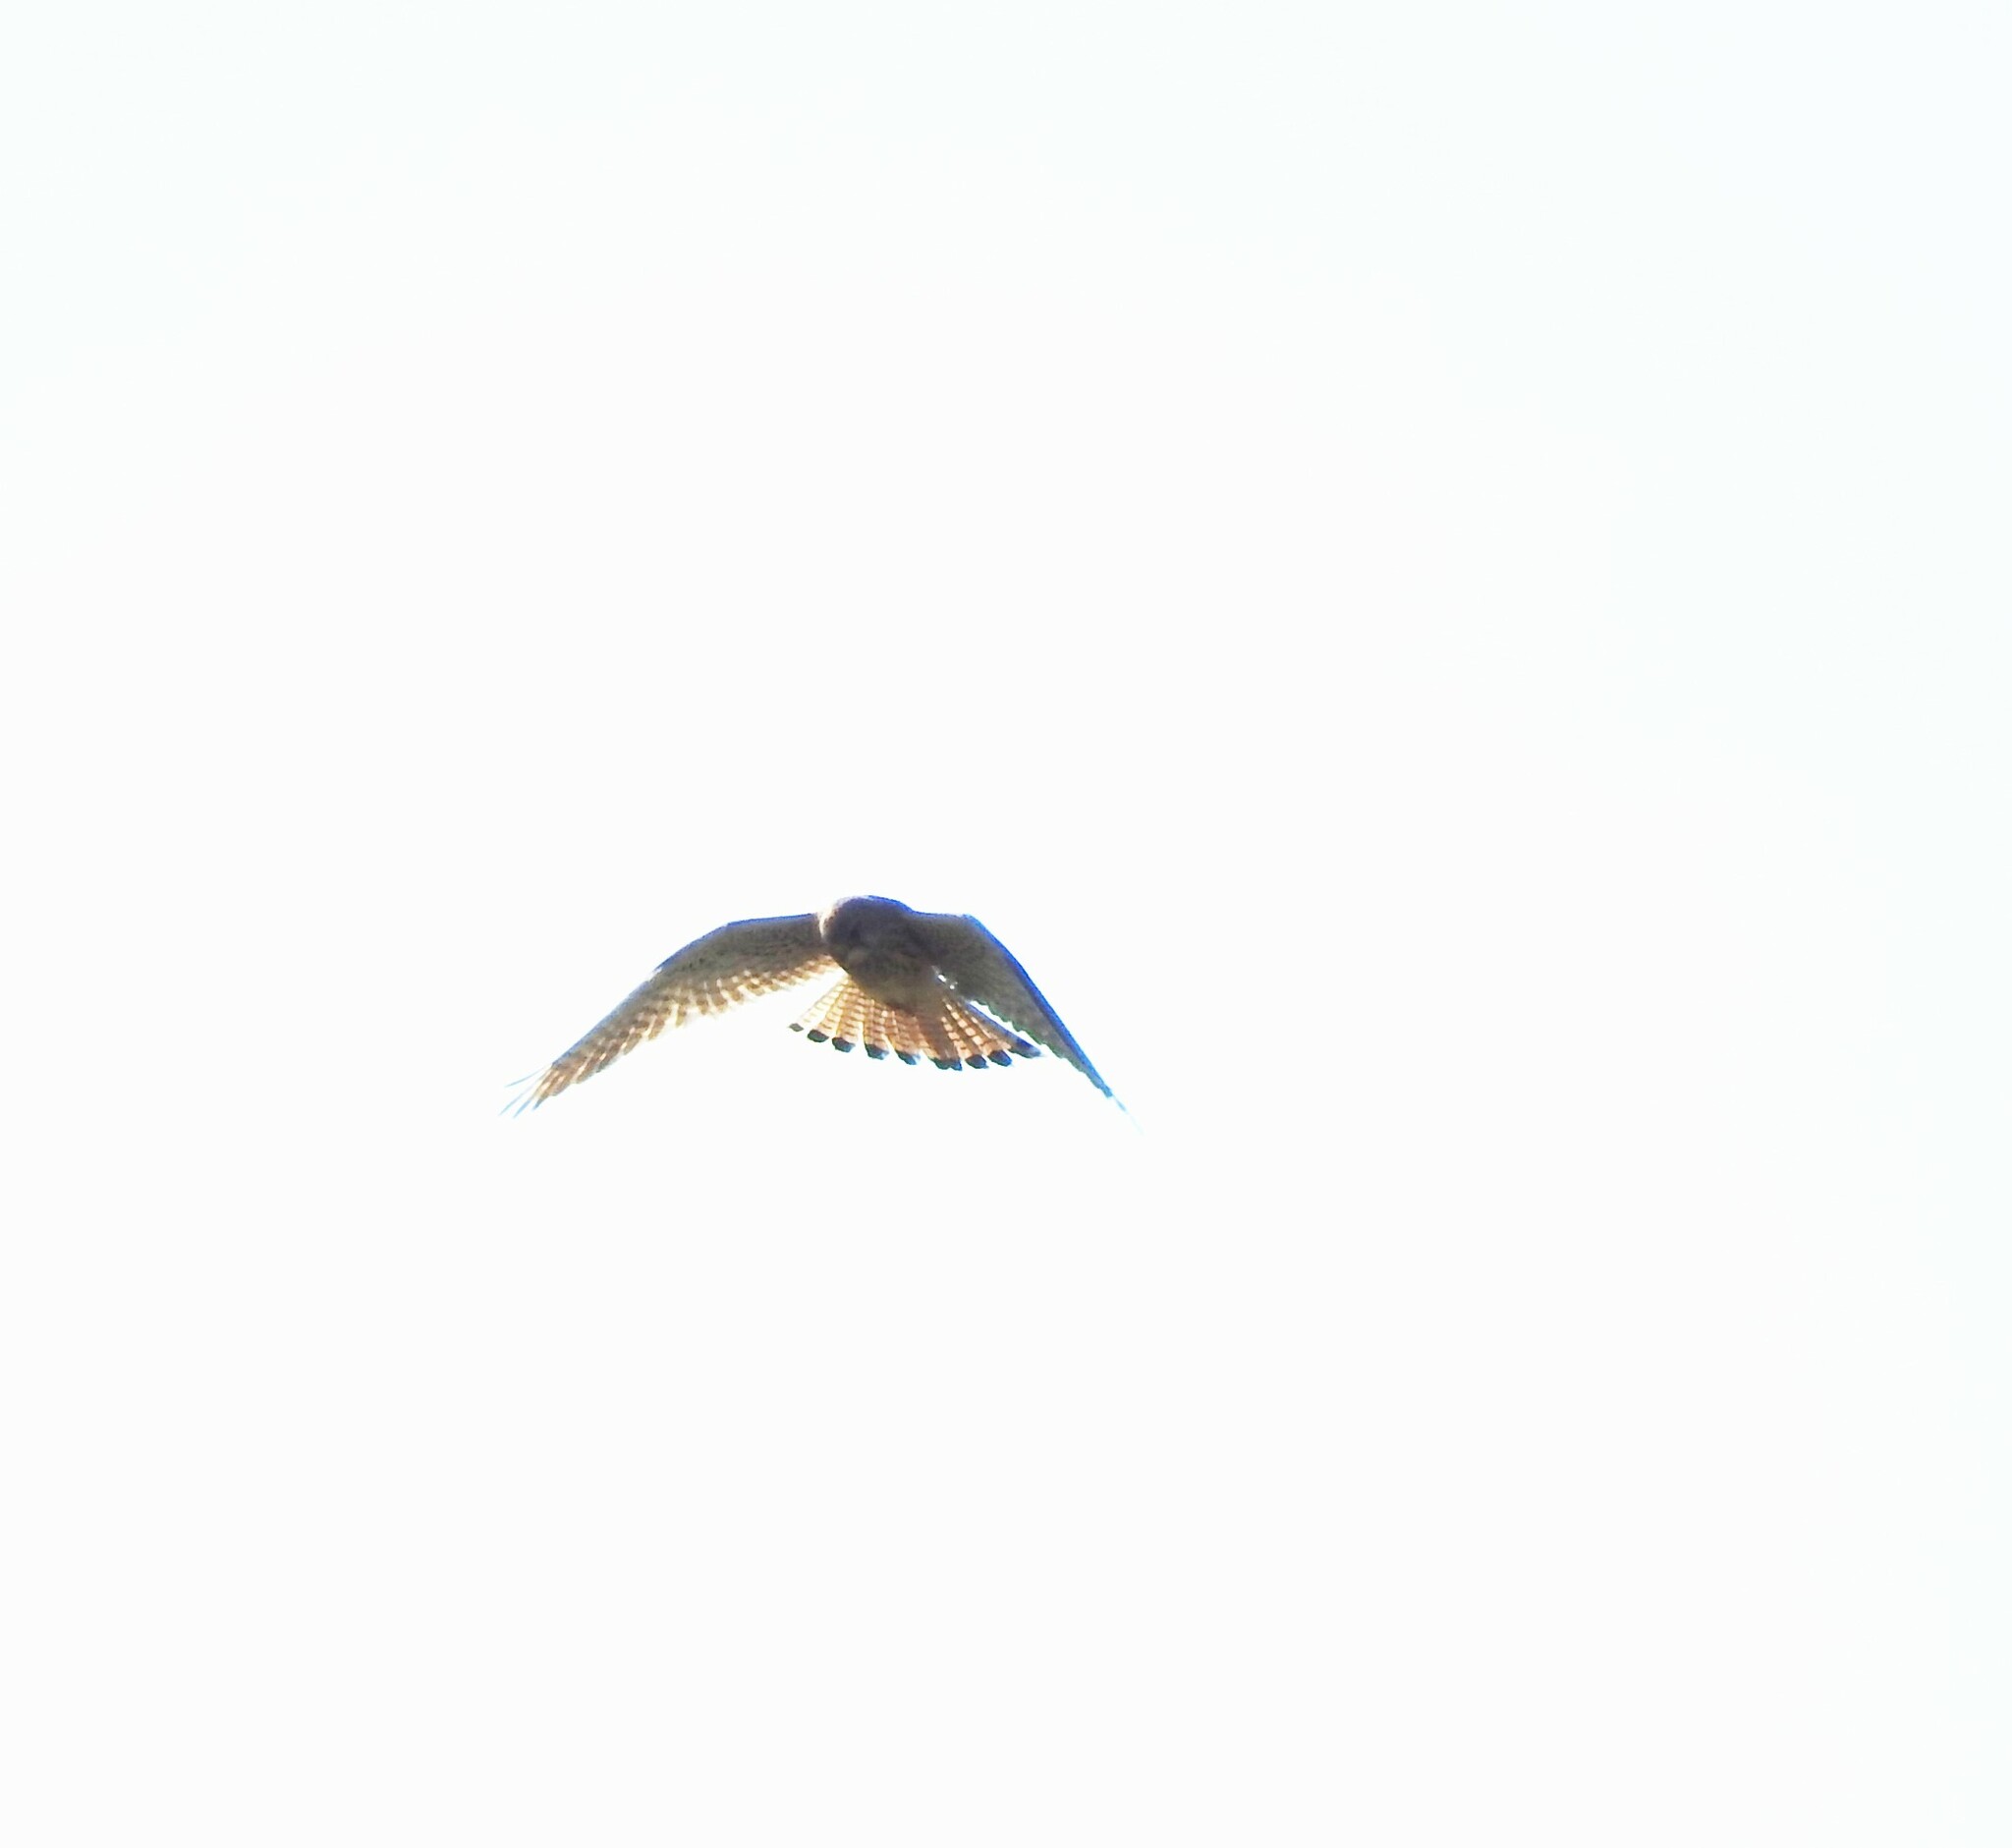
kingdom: Animalia
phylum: Chordata
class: Aves
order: Falconiformes
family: Falconidae
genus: Falco
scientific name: Falco tinnunculus
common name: Common kestrel
